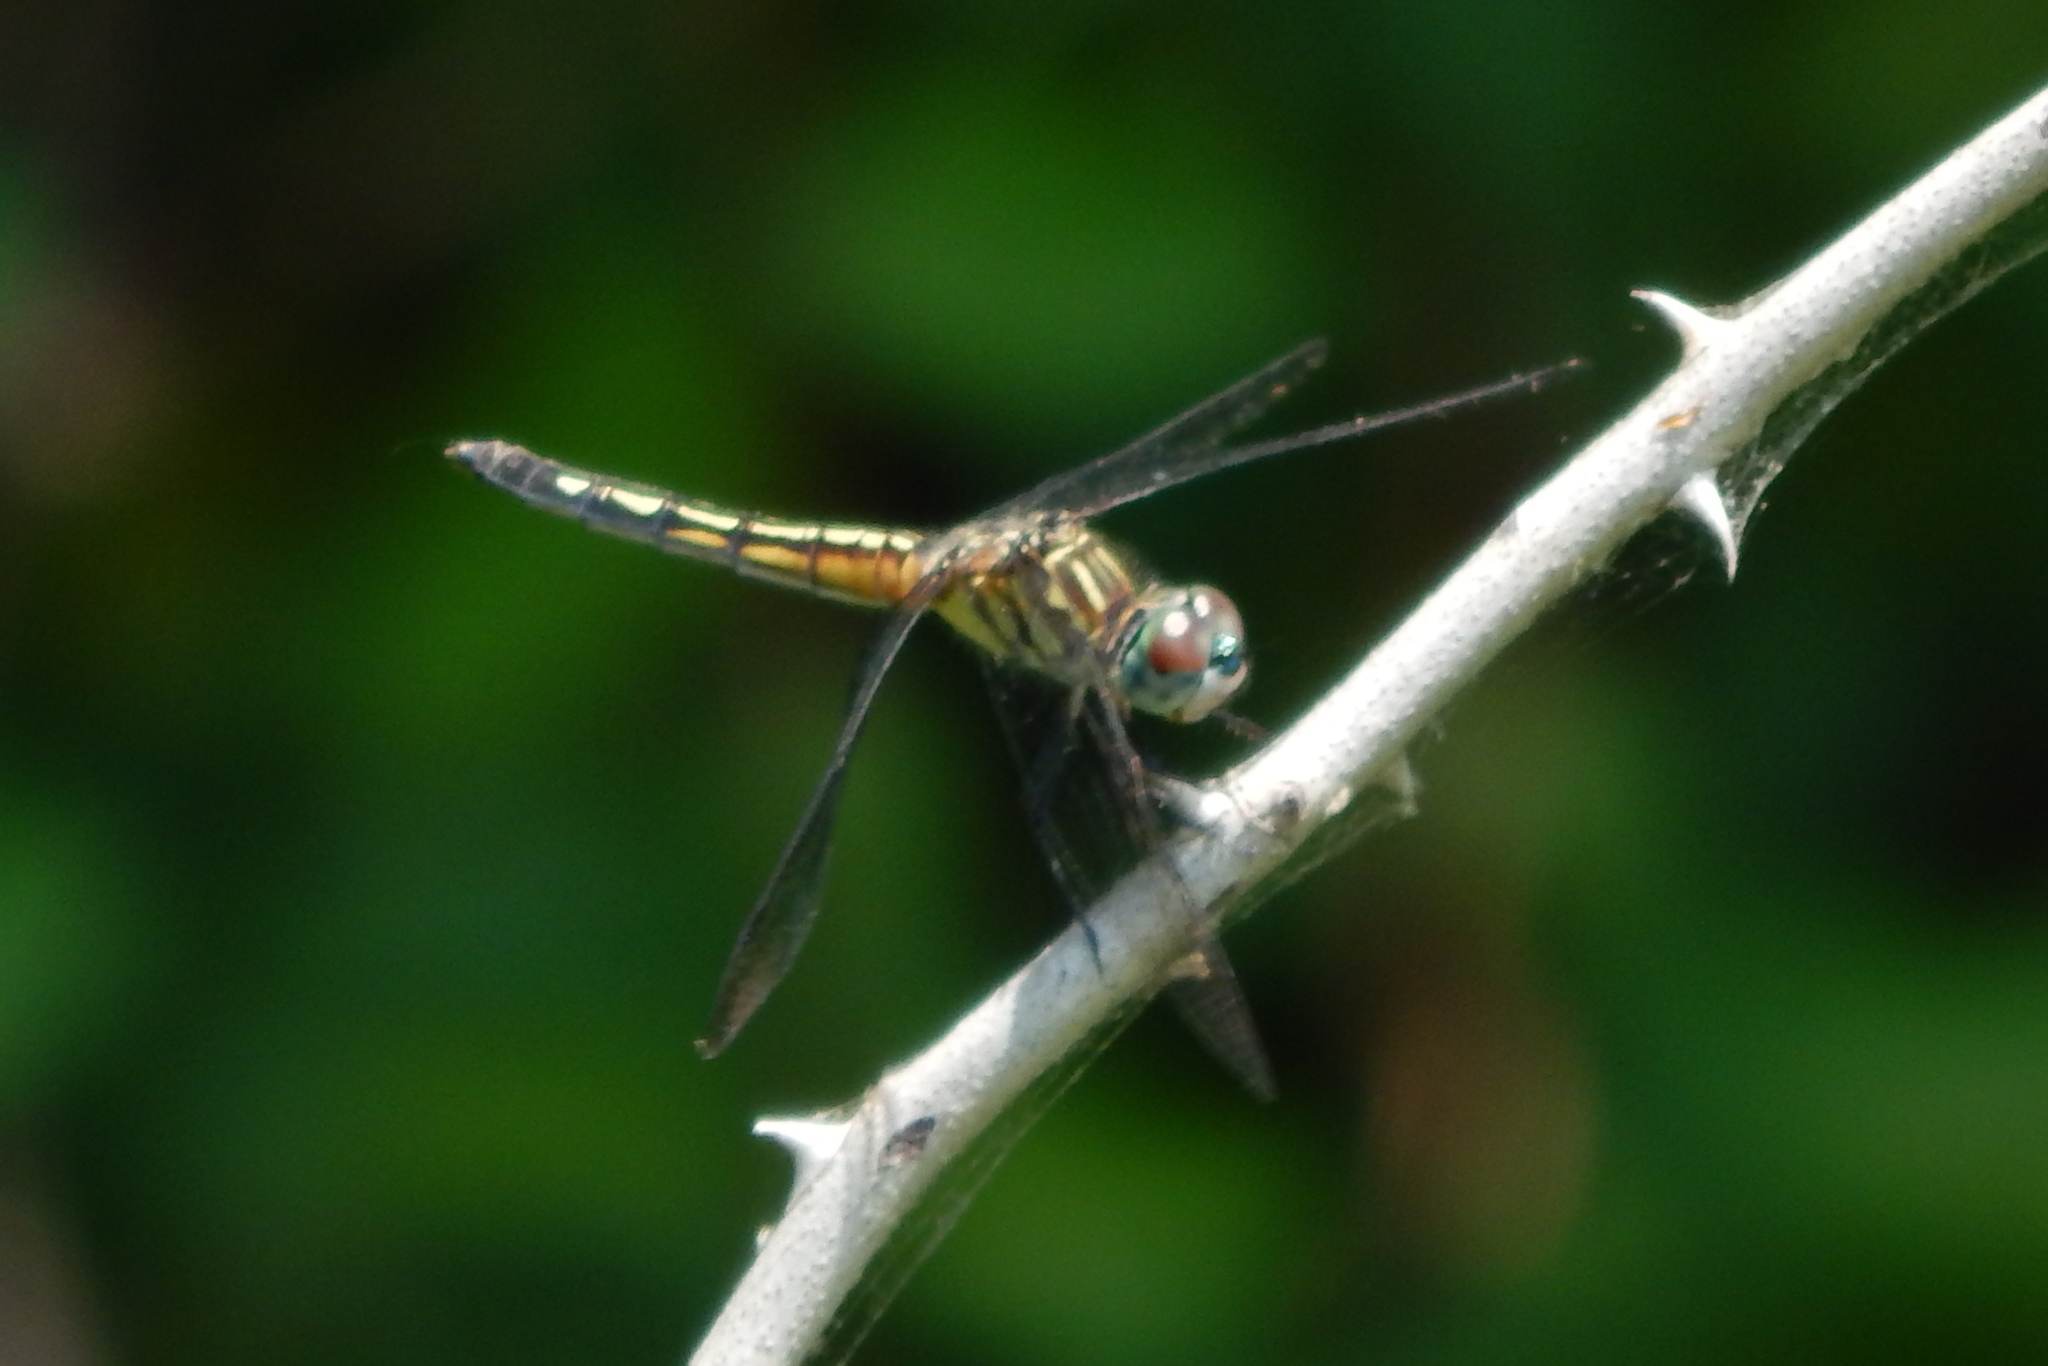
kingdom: Animalia
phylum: Arthropoda
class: Insecta
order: Odonata
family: Libellulidae
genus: Pachydiplax
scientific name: Pachydiplax longipennis
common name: Blue dasher
